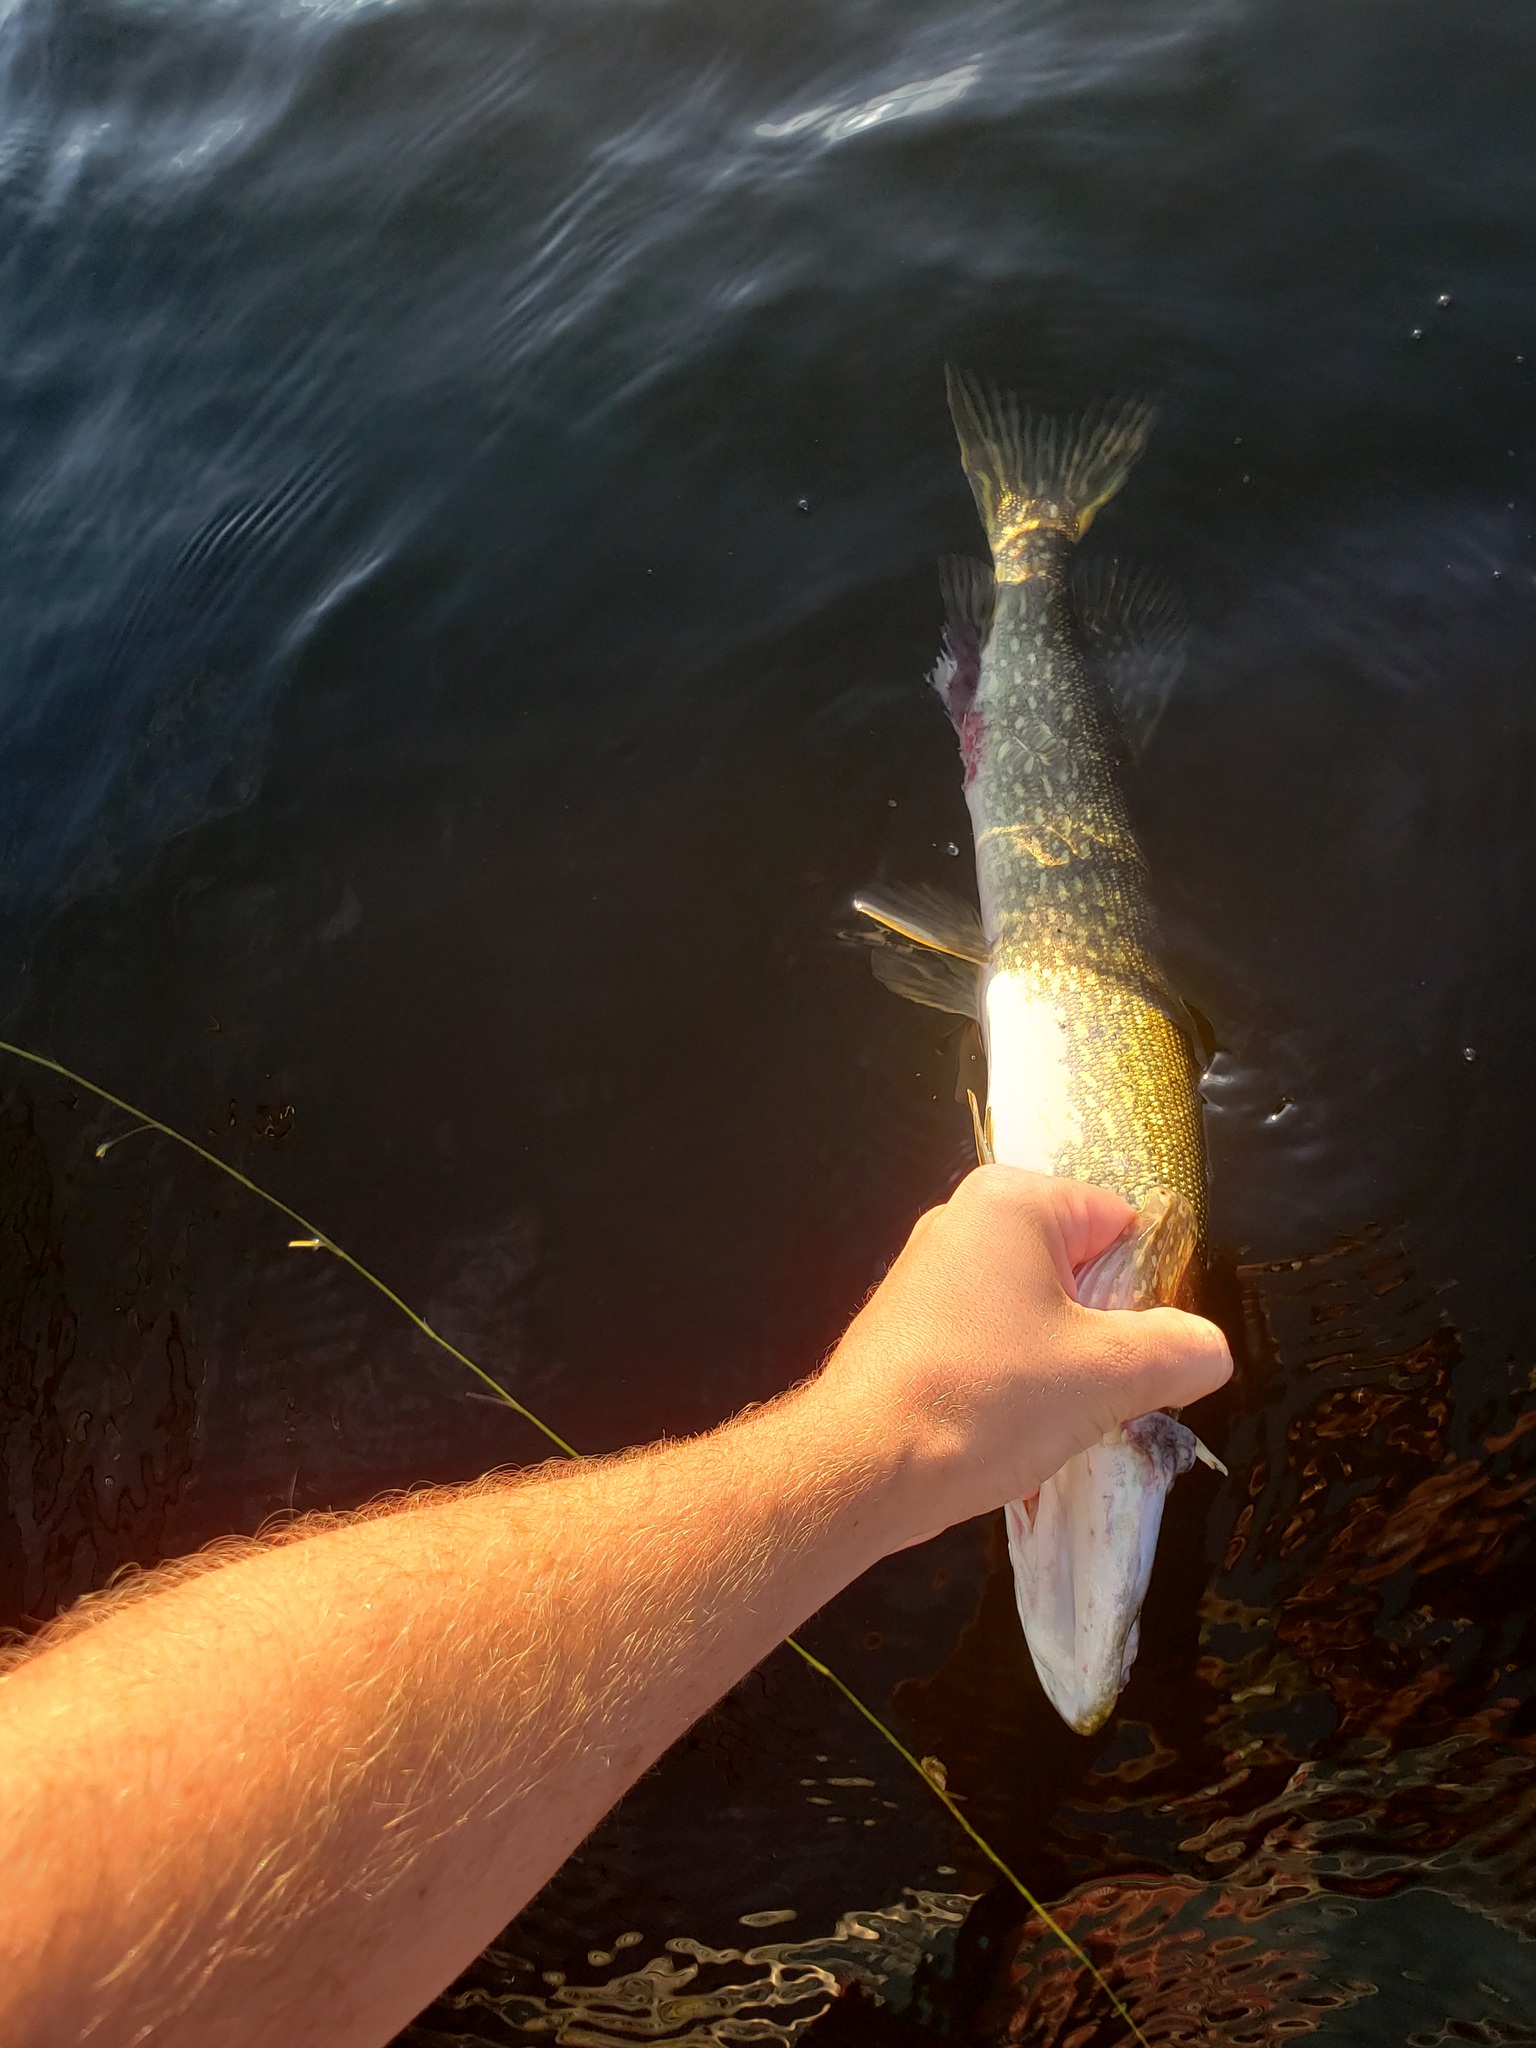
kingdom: Animalia
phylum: Chordata
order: Esociformes
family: Esocidae
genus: Esox
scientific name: Esox lucius
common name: Northern pike
